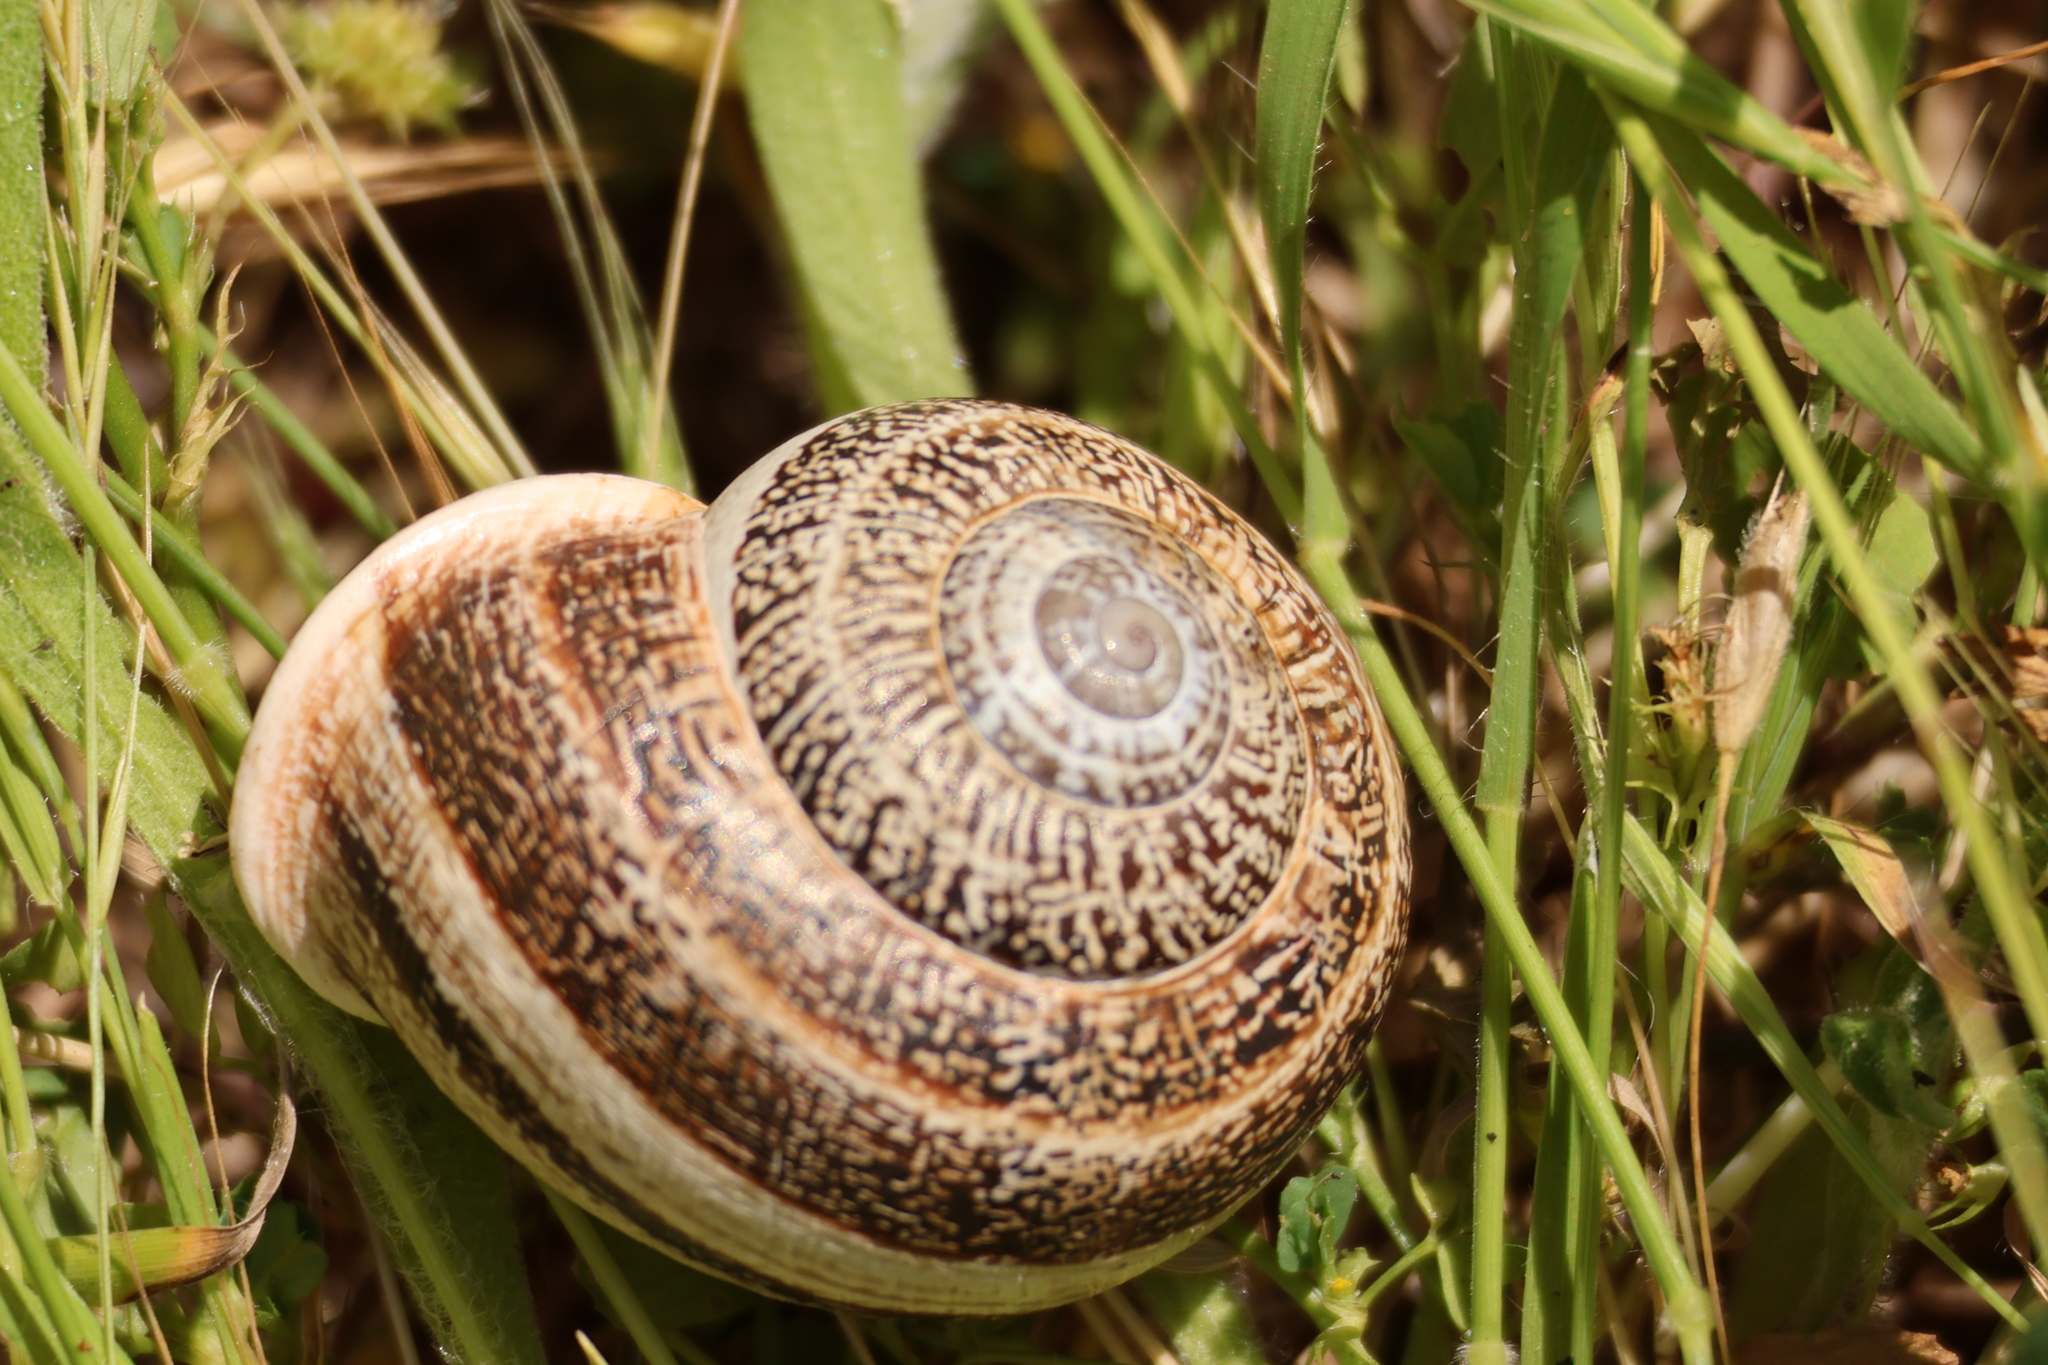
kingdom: Animalia
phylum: Mollusca
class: Gastropoda
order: Stylommatophora
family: Helicidae
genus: Otala
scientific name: Otala lactea
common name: Milk snail
